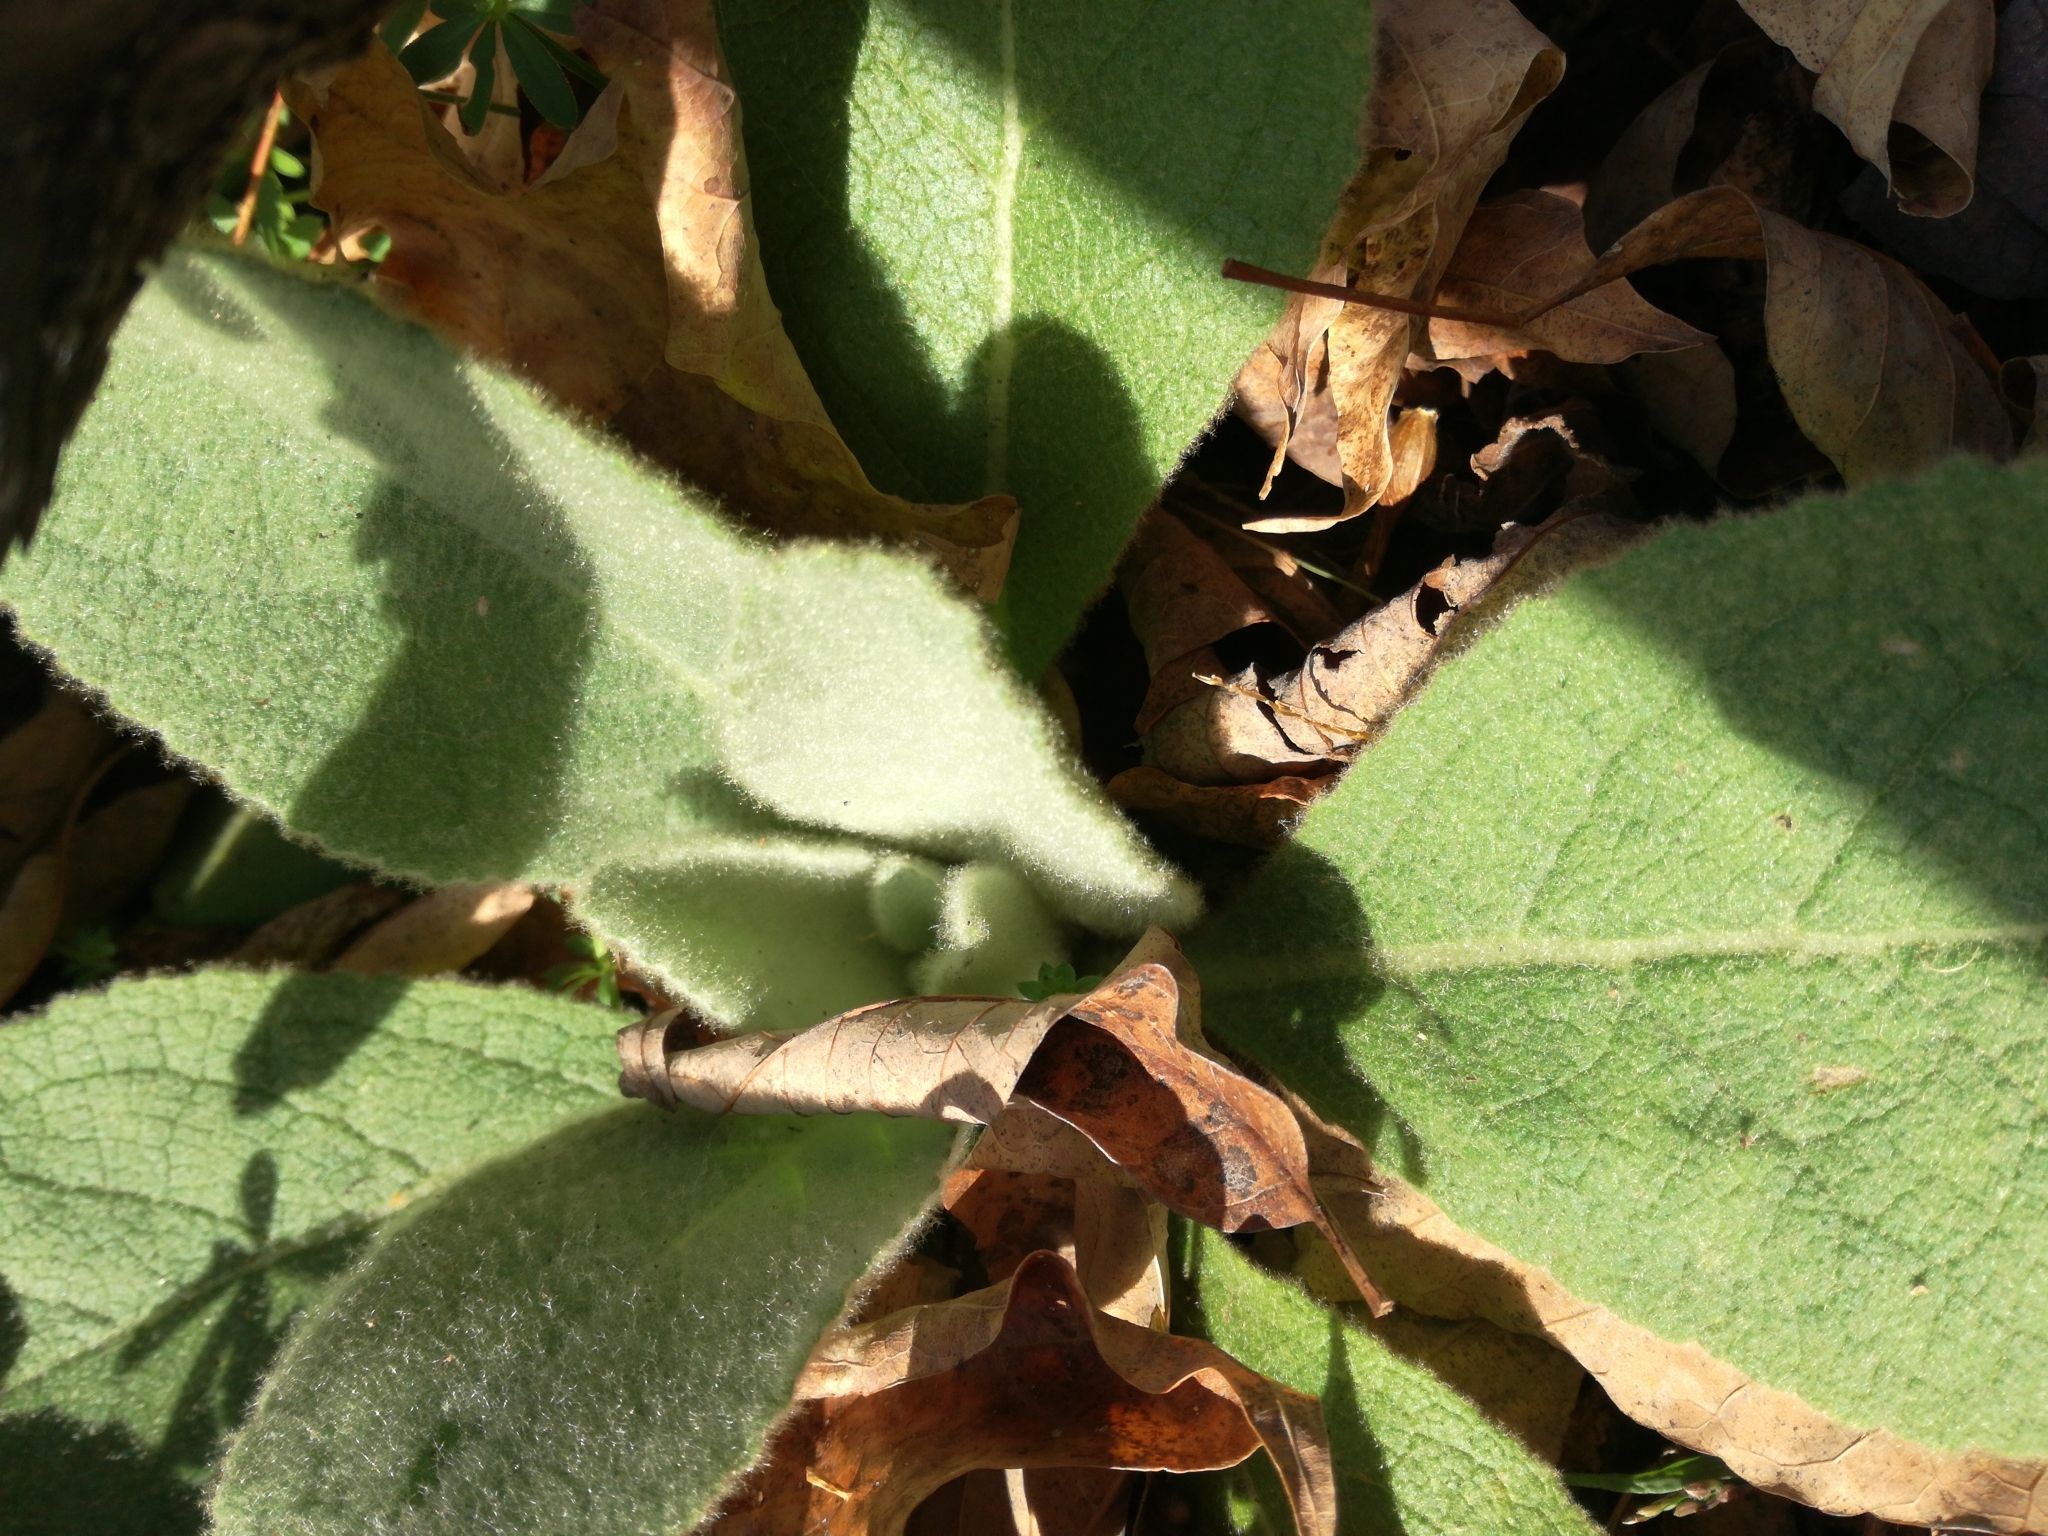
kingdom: Plantae
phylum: Tracheophyta
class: Magnoliopsida
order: Lamiales
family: Scrophulariaceae
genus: Verbascum
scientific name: Verbascum thapsus
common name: Common mullein
